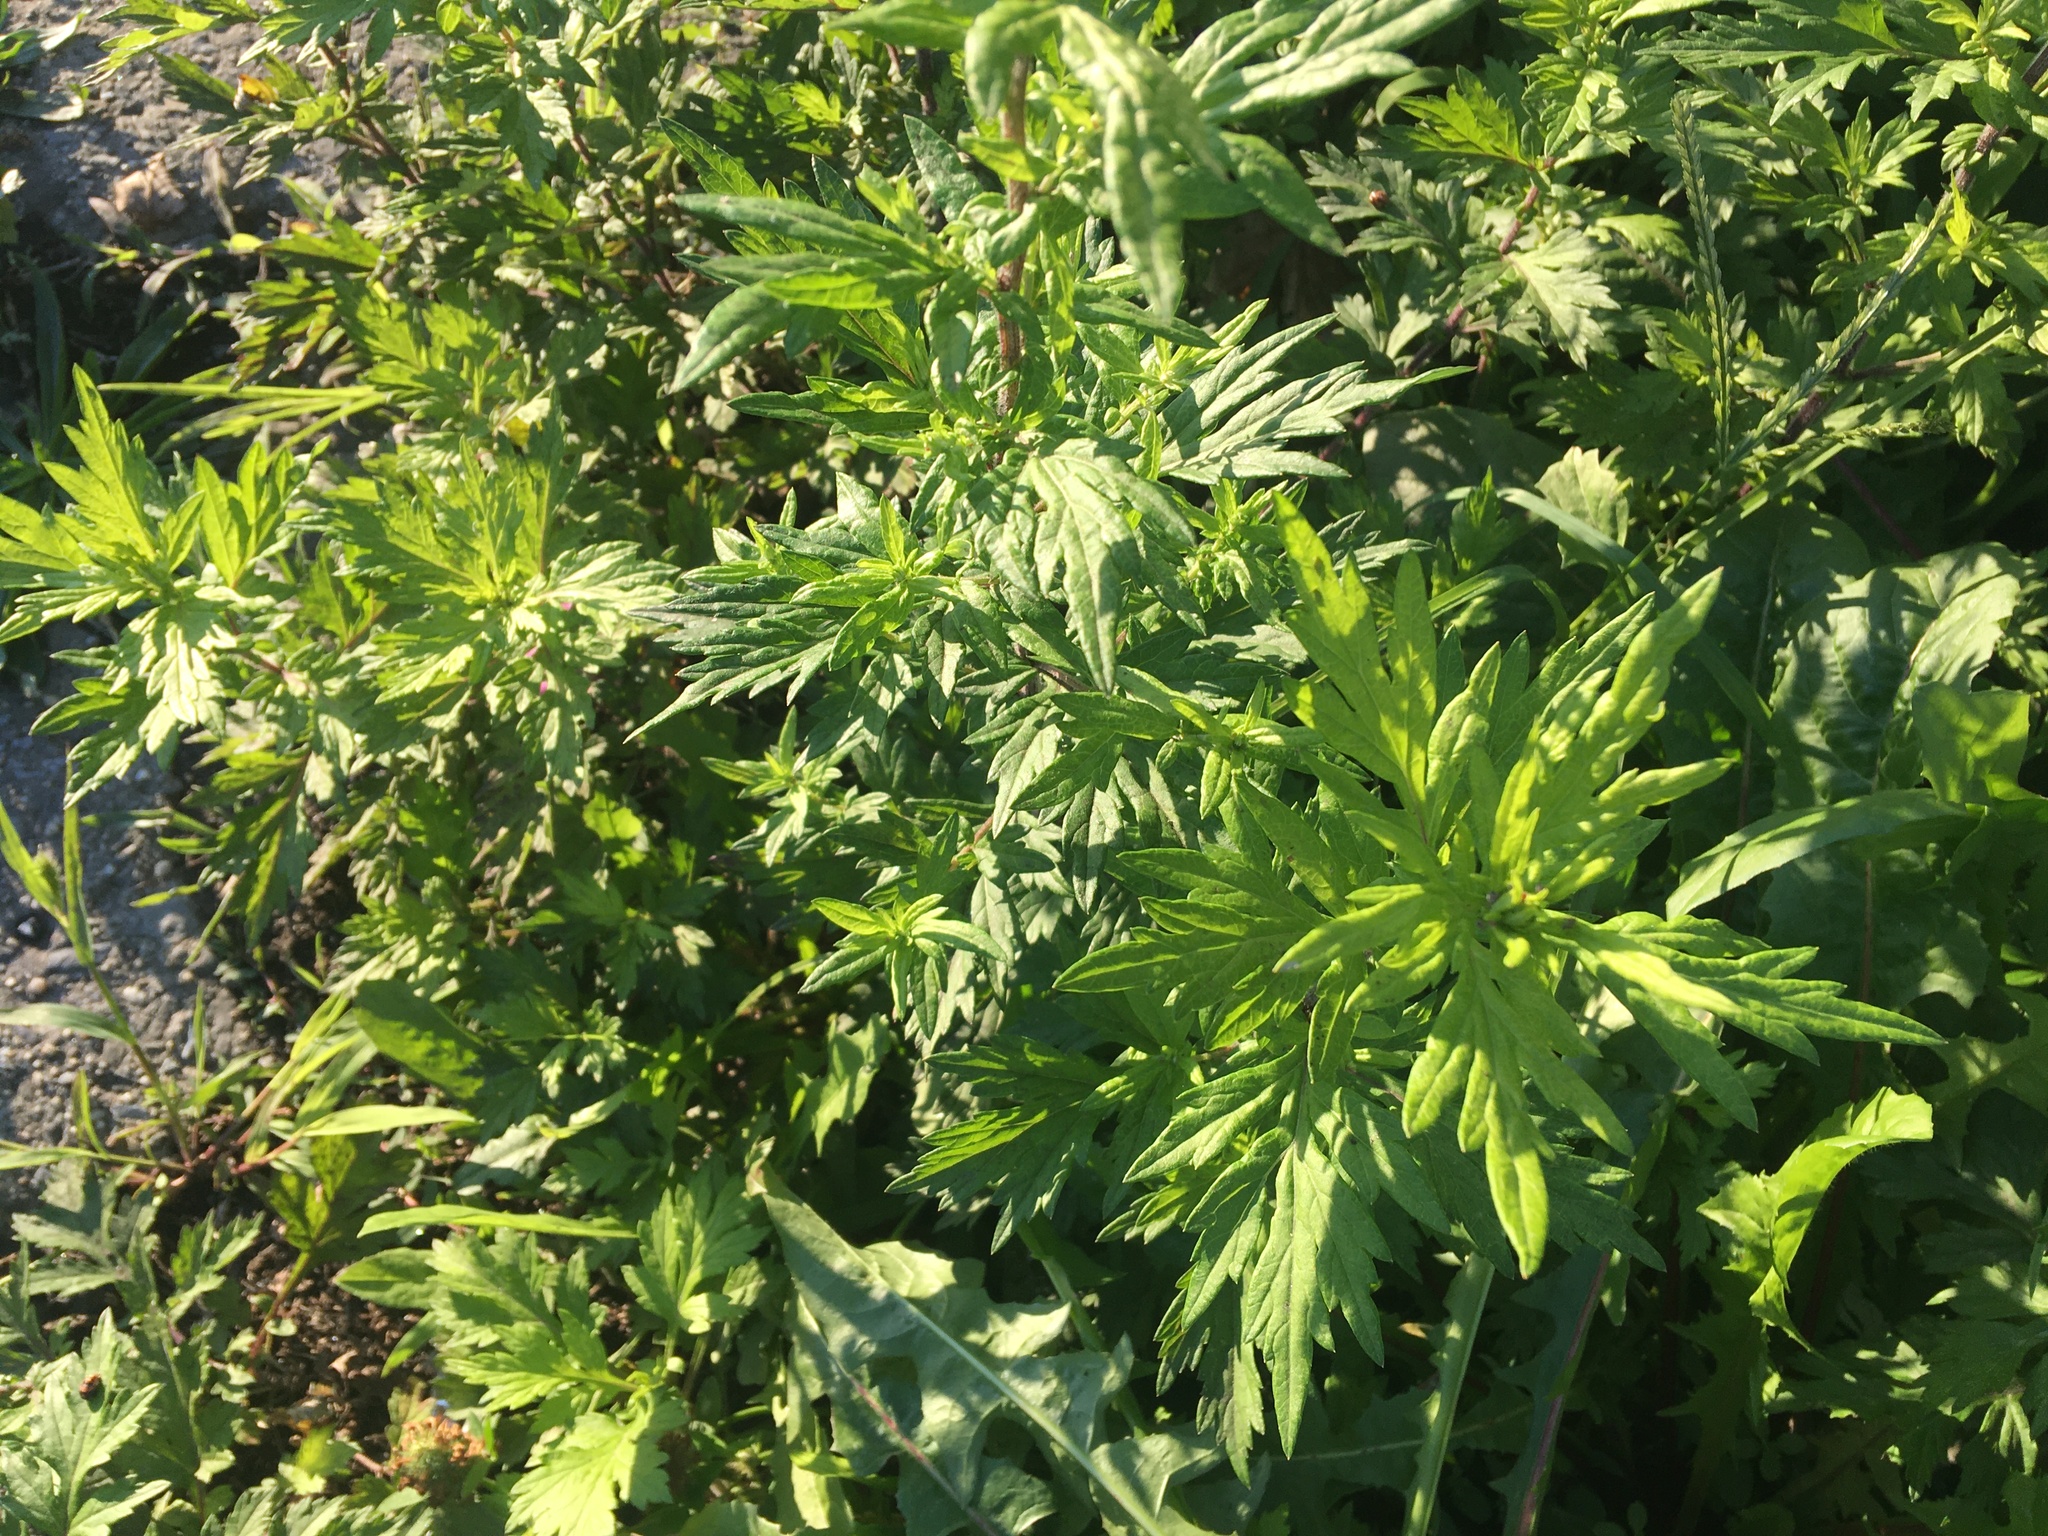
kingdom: Plantae
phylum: Tracheophyta
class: Magnoliopsida
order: Asterales
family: Asteraceae
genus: Artemisia
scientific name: Artemisia vulgaris
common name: Mugwort
